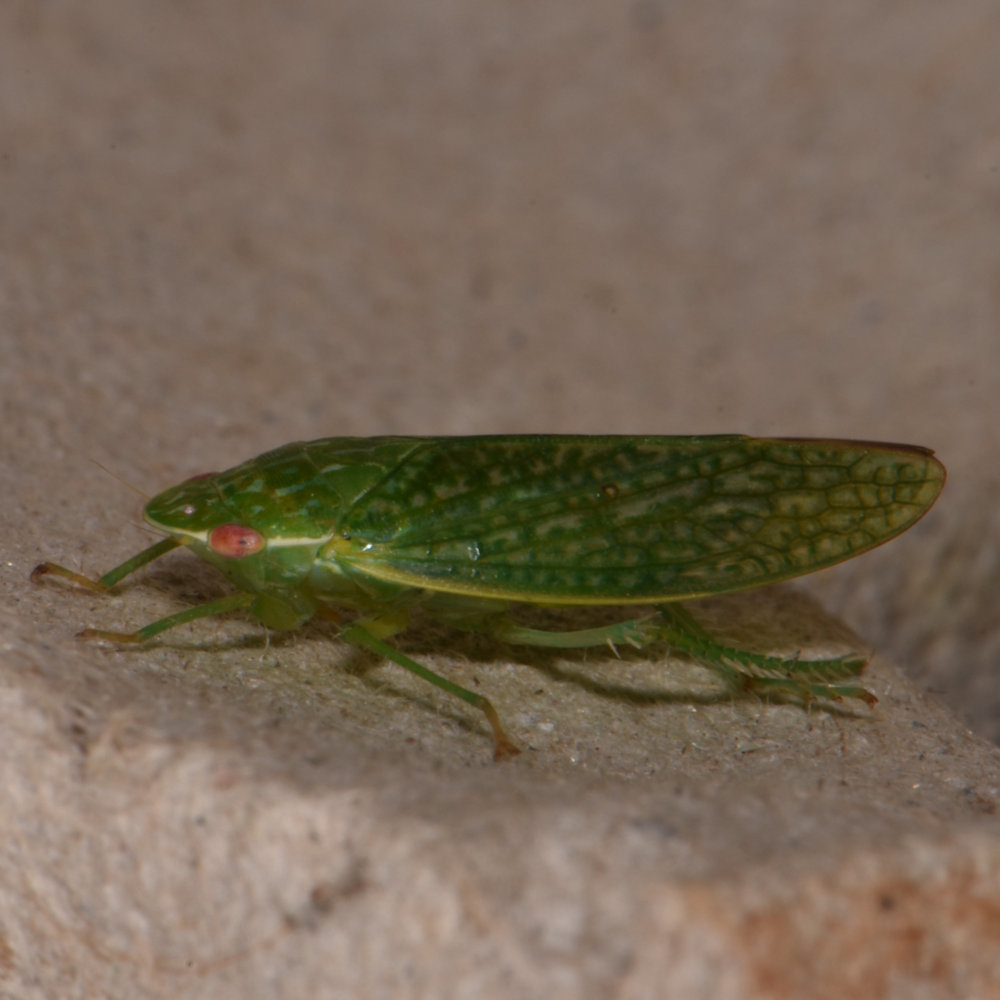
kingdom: Animalia
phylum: Arthropoda
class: Insecta
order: Hemiptera
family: Cicadellidae
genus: Rugosana
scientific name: Rugosana querci
